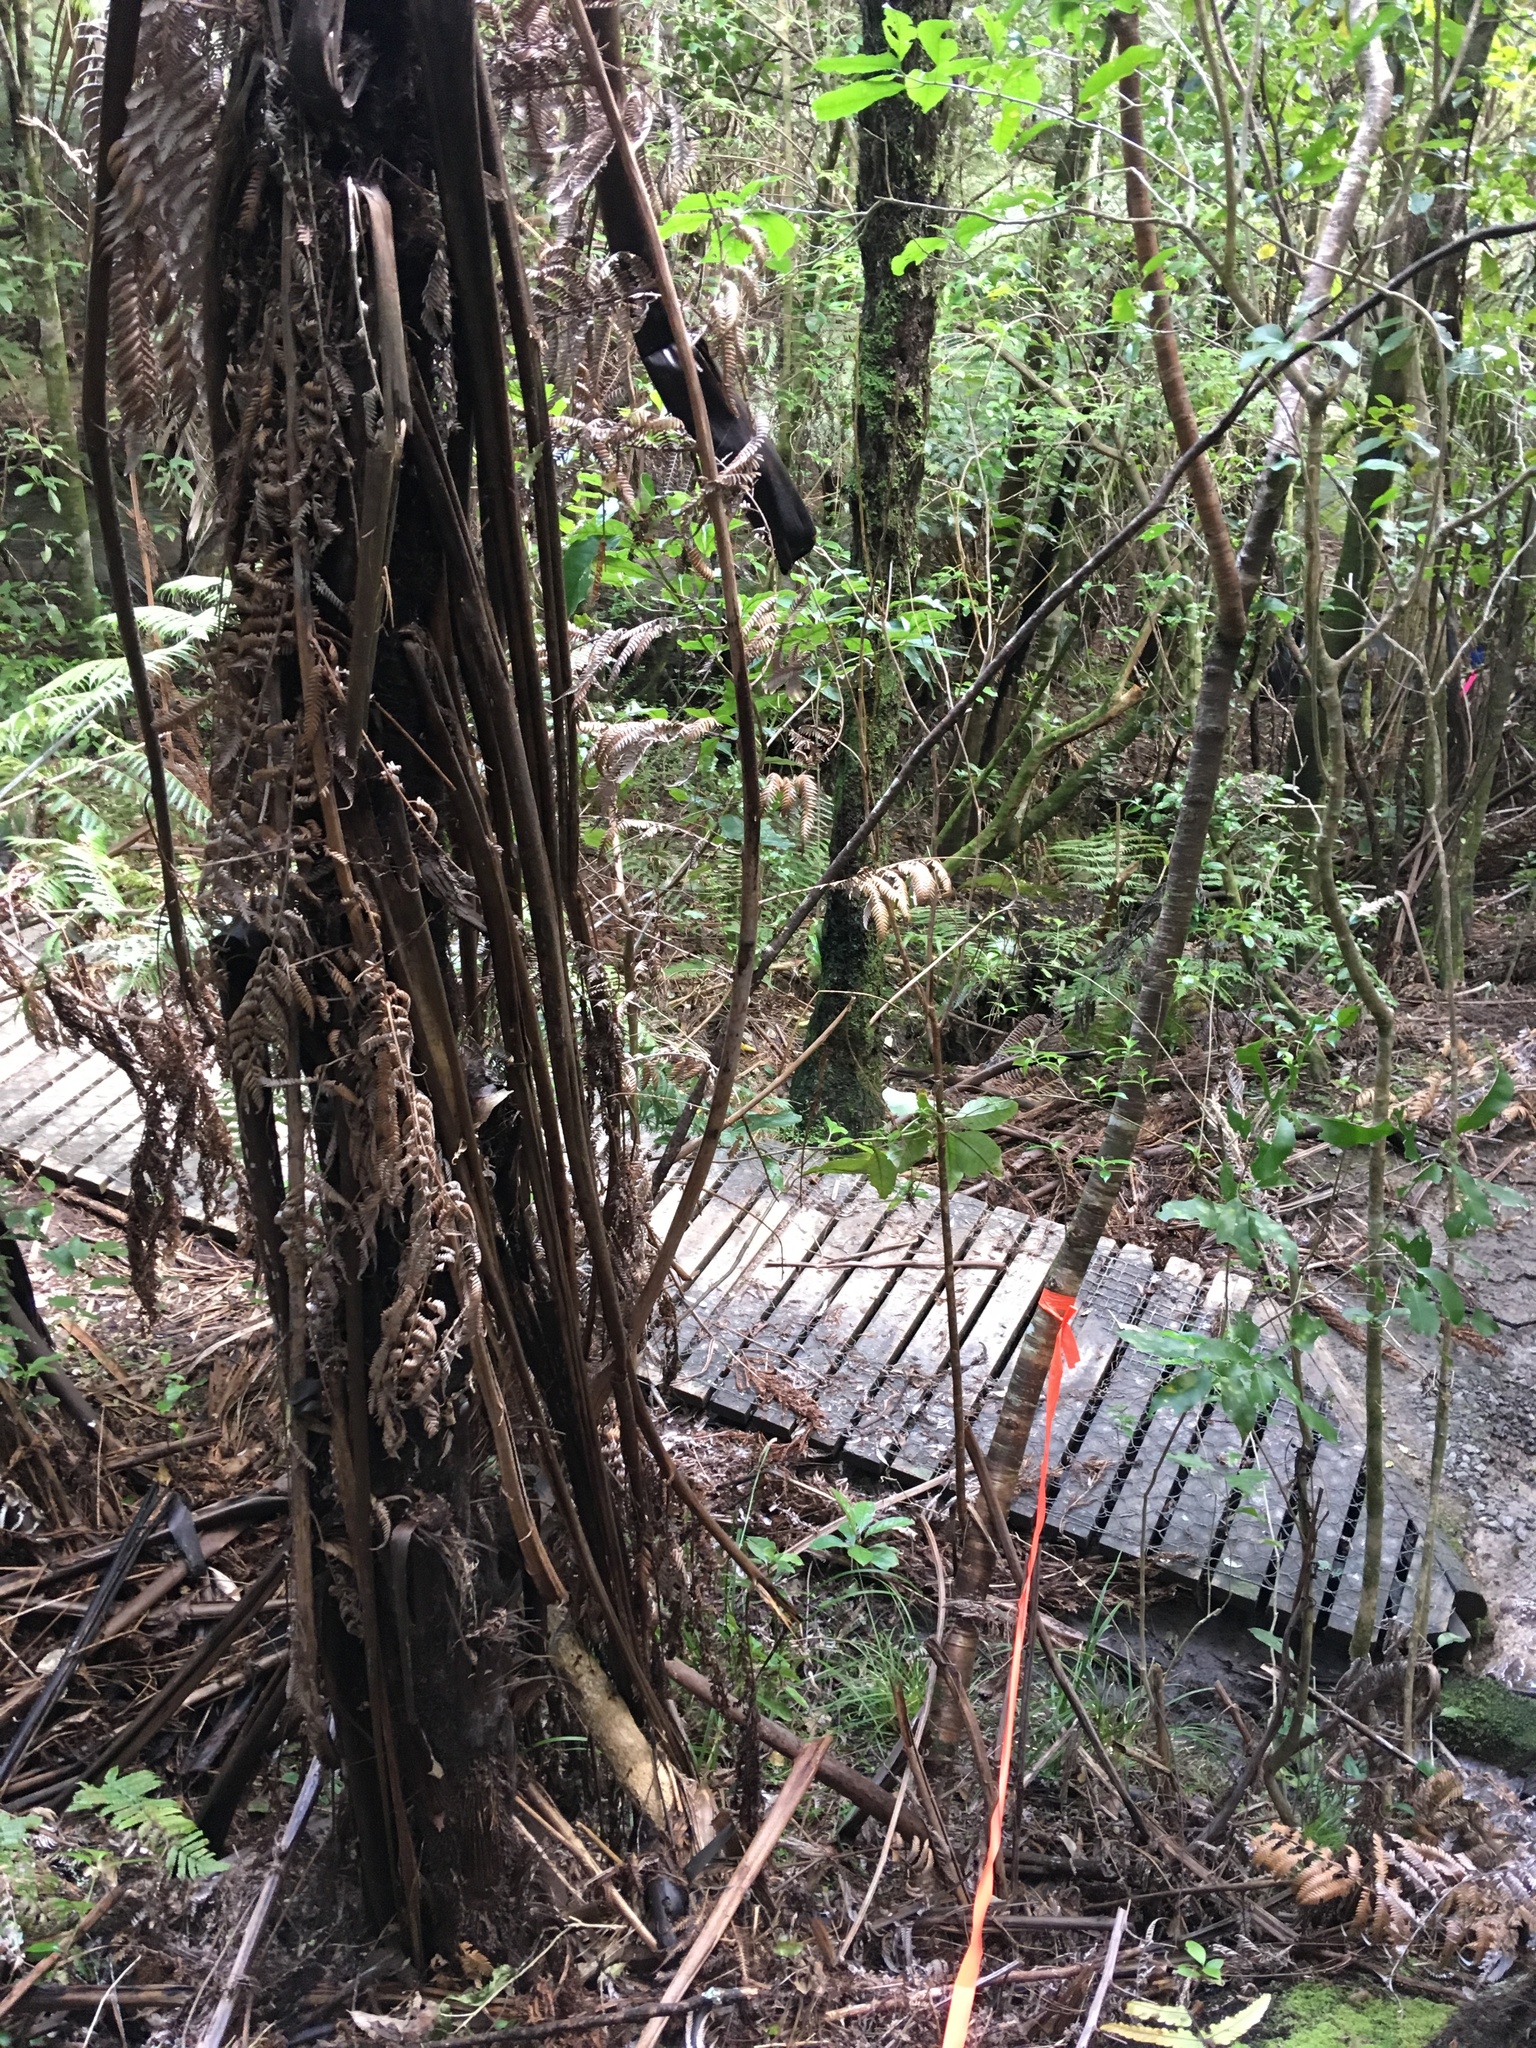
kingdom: Plantae
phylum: Tracheophyta
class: Magnoliopsida
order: Malpighiales
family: Violaceae
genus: Melicytus
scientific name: Melicytus ramiflorus
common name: Mahoe
